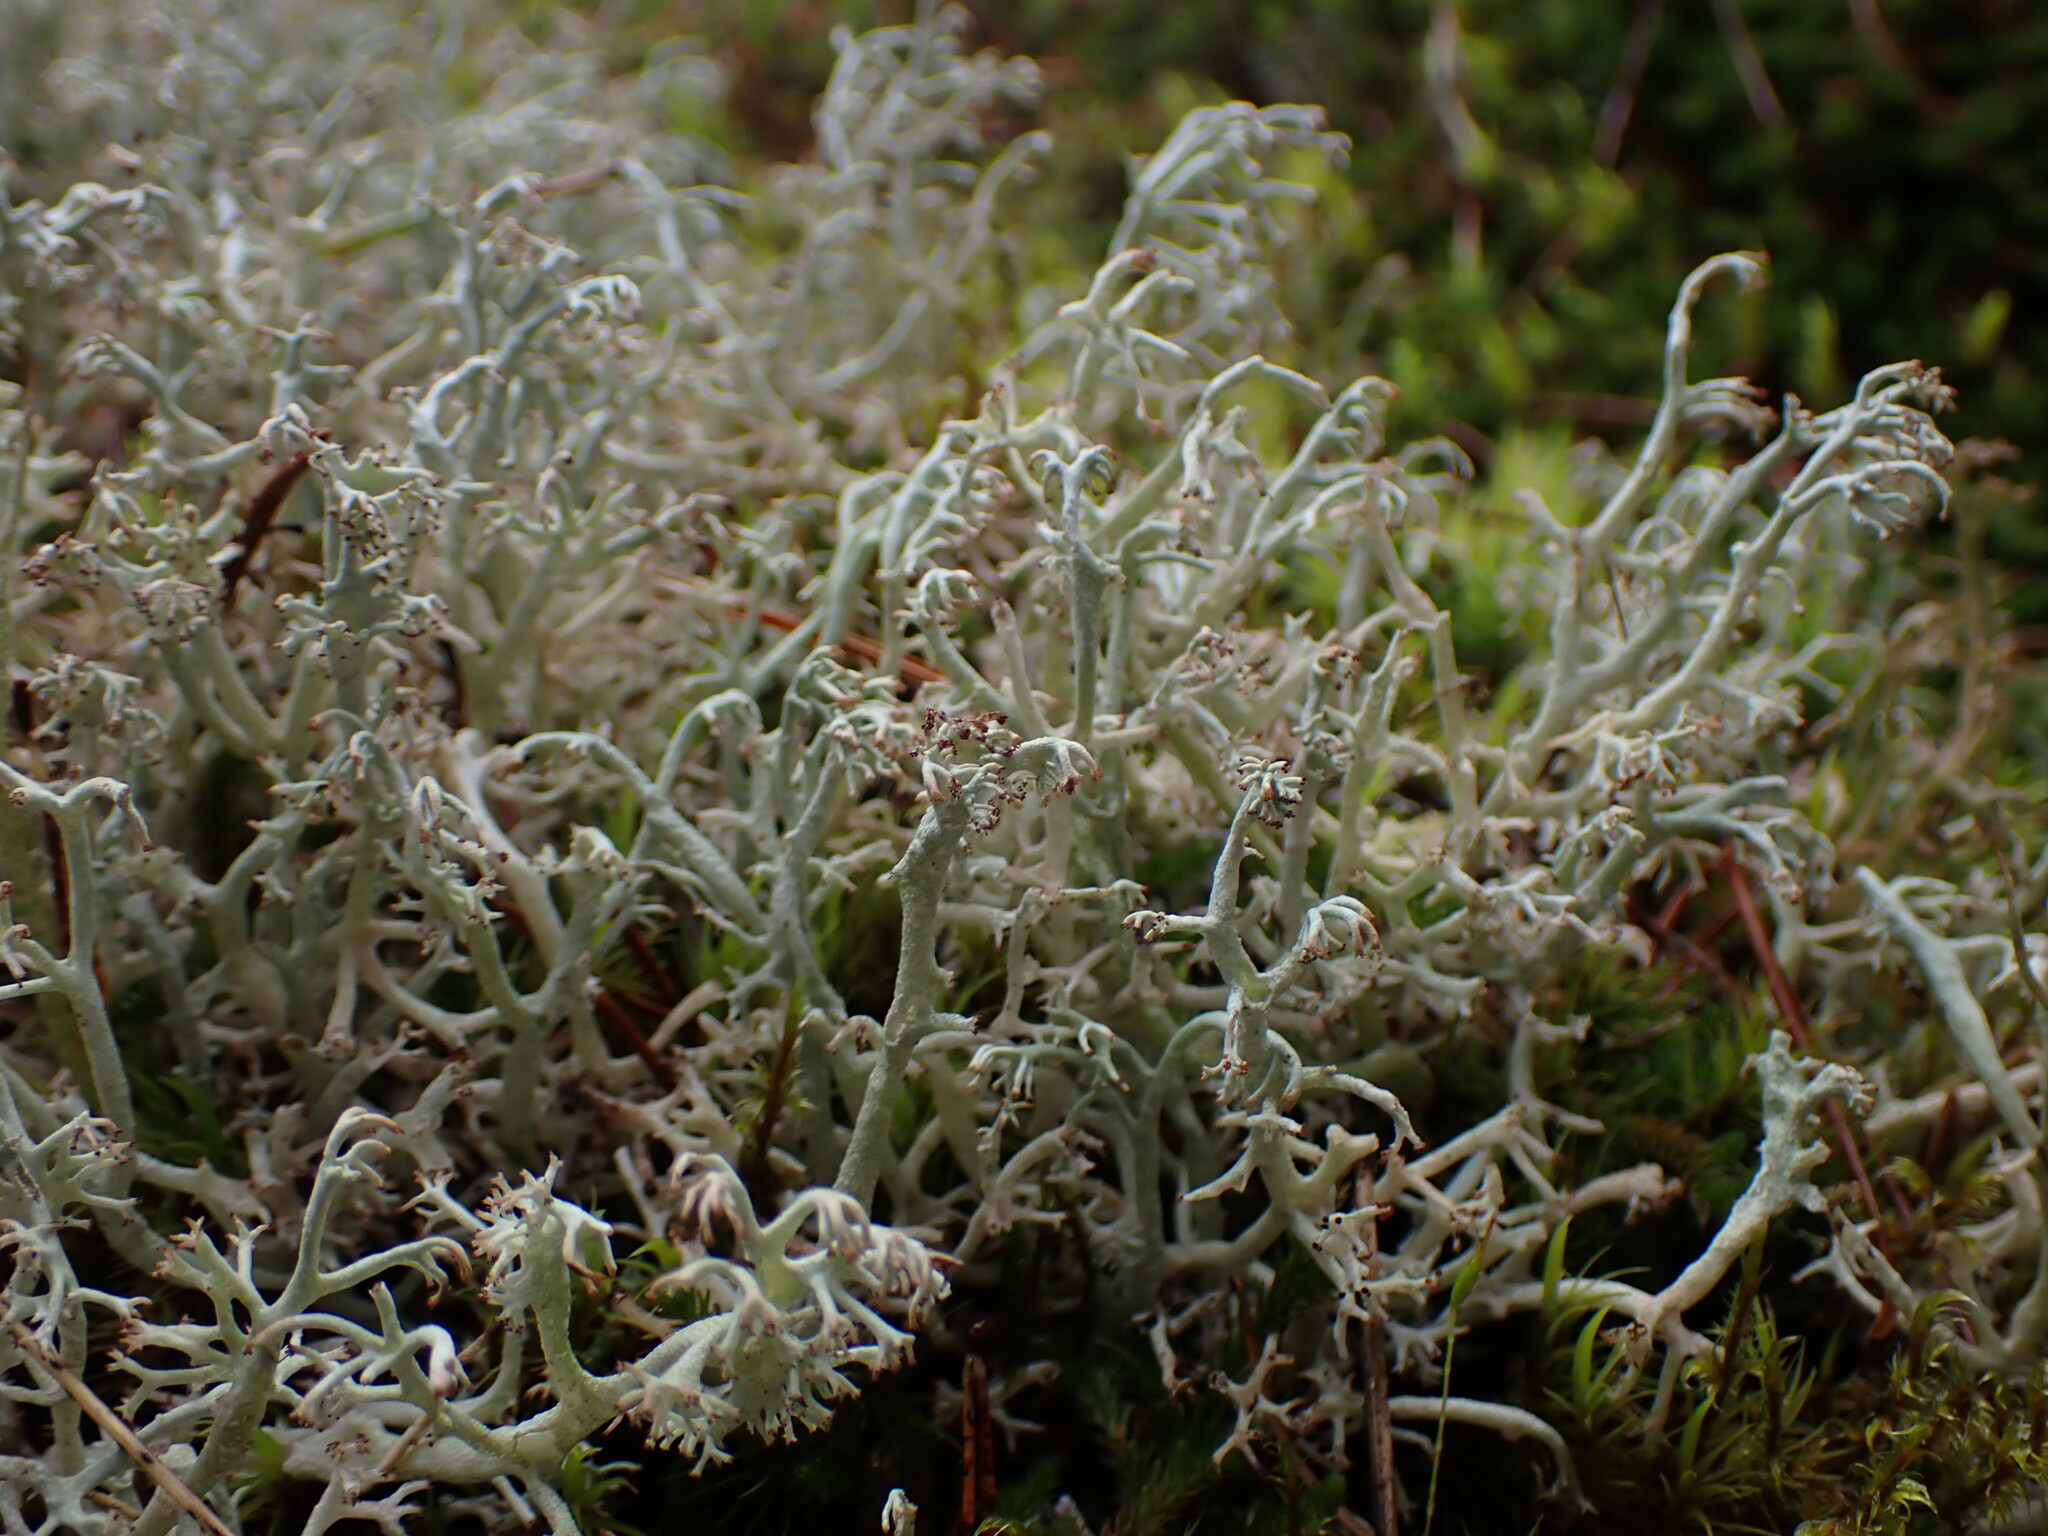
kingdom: Fungi
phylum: Ascomycota
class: Lecanoromycetes
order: Lecanorales
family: Cladoniaceae
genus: Cladonia
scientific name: Cladonia rangiferina
